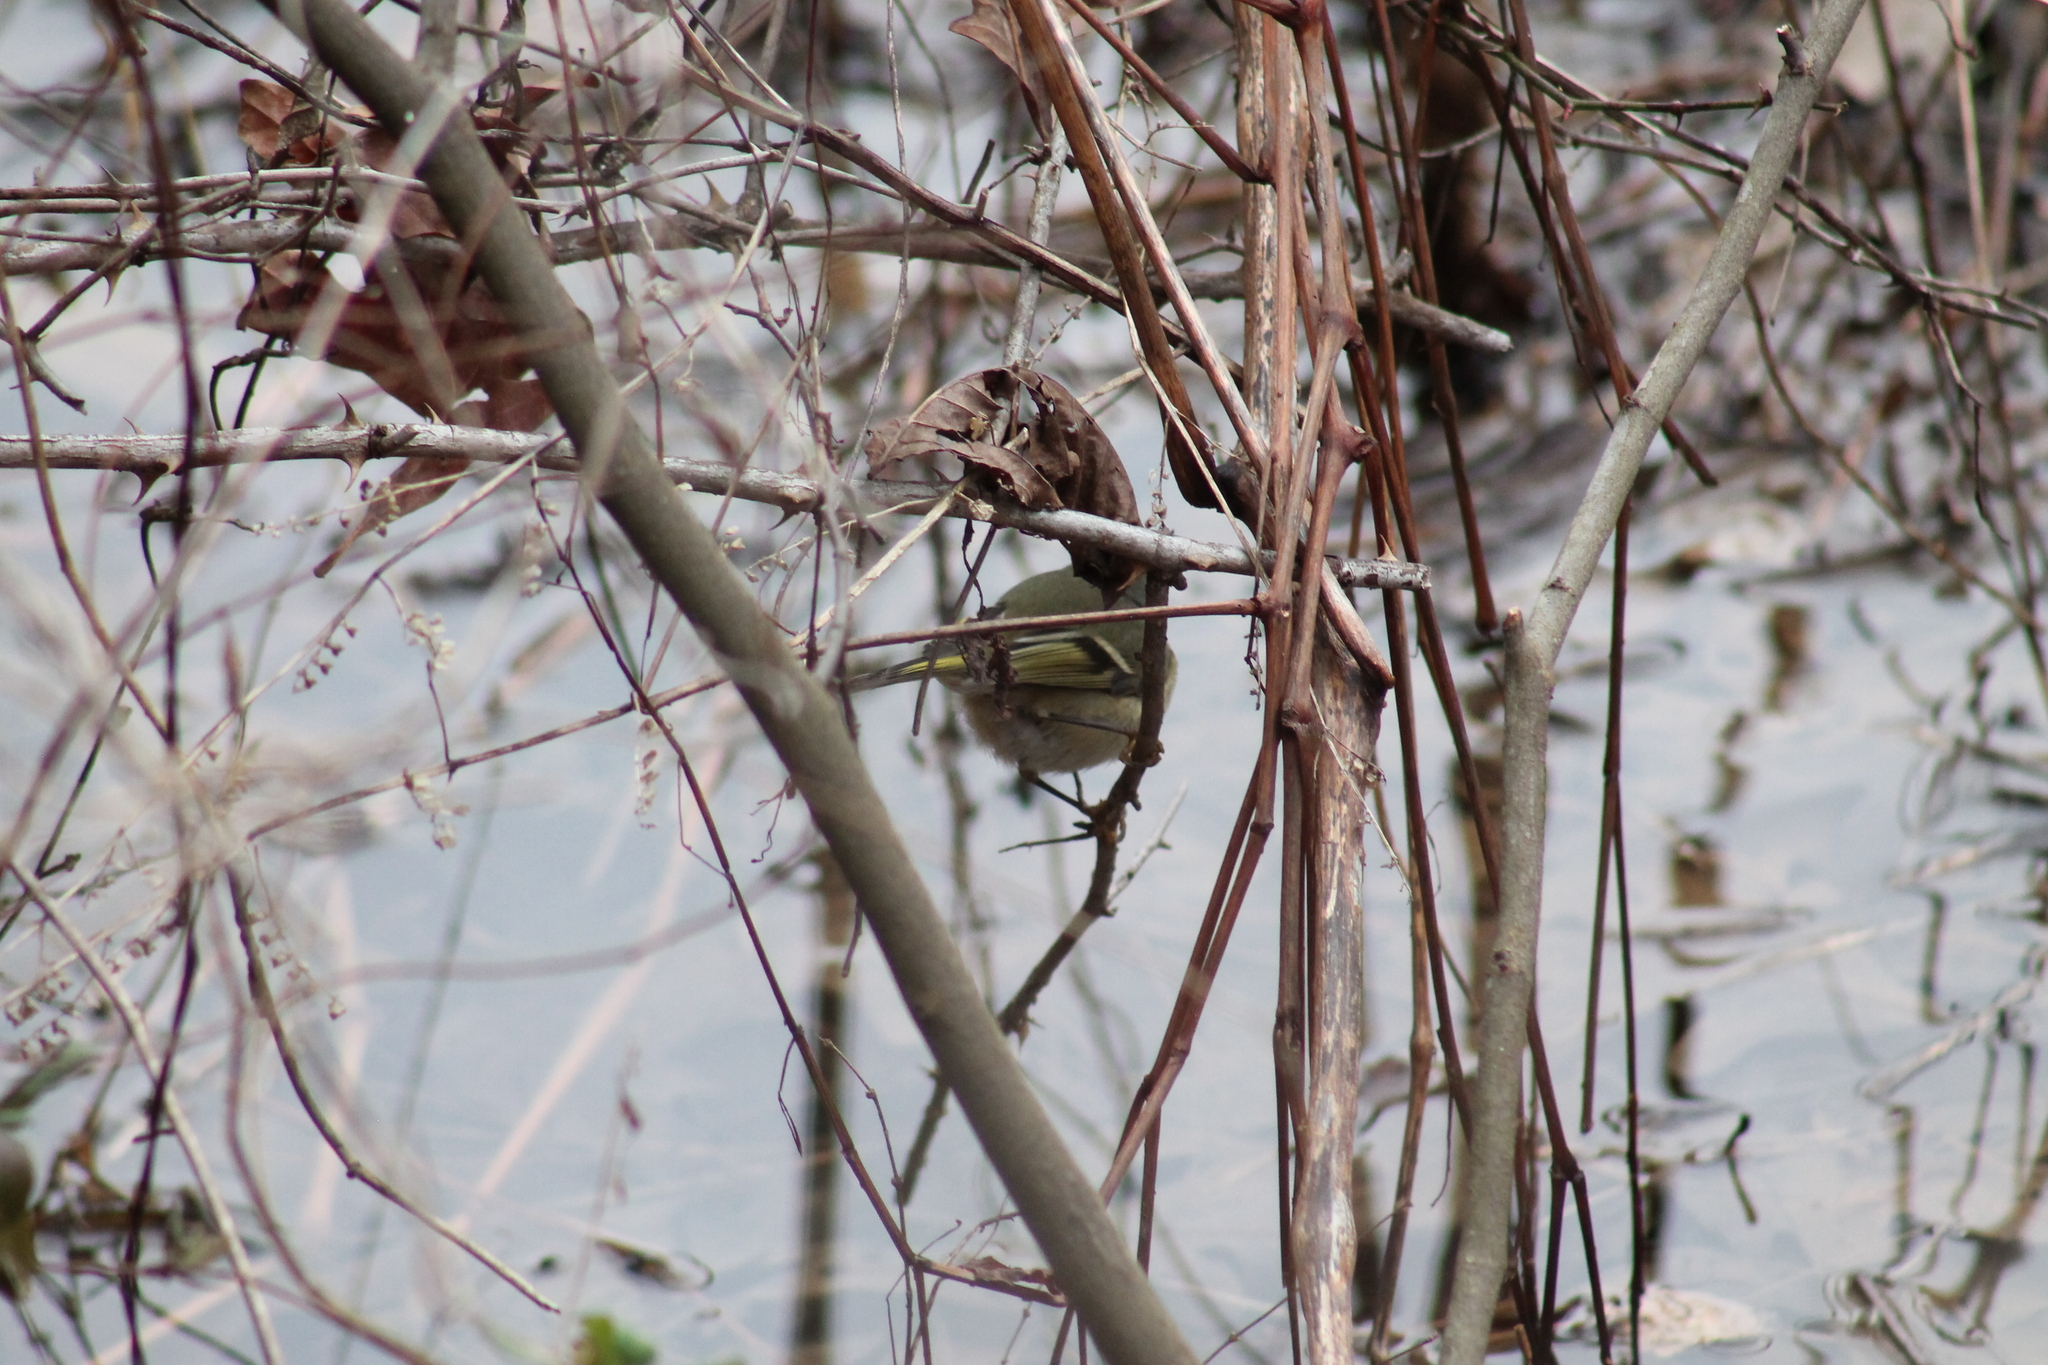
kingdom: Animalia
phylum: Chordata
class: Aves
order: Passeriformes
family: Regulidae
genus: Regulus
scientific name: Regulus calendula
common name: Ruby-crowned kinglet
